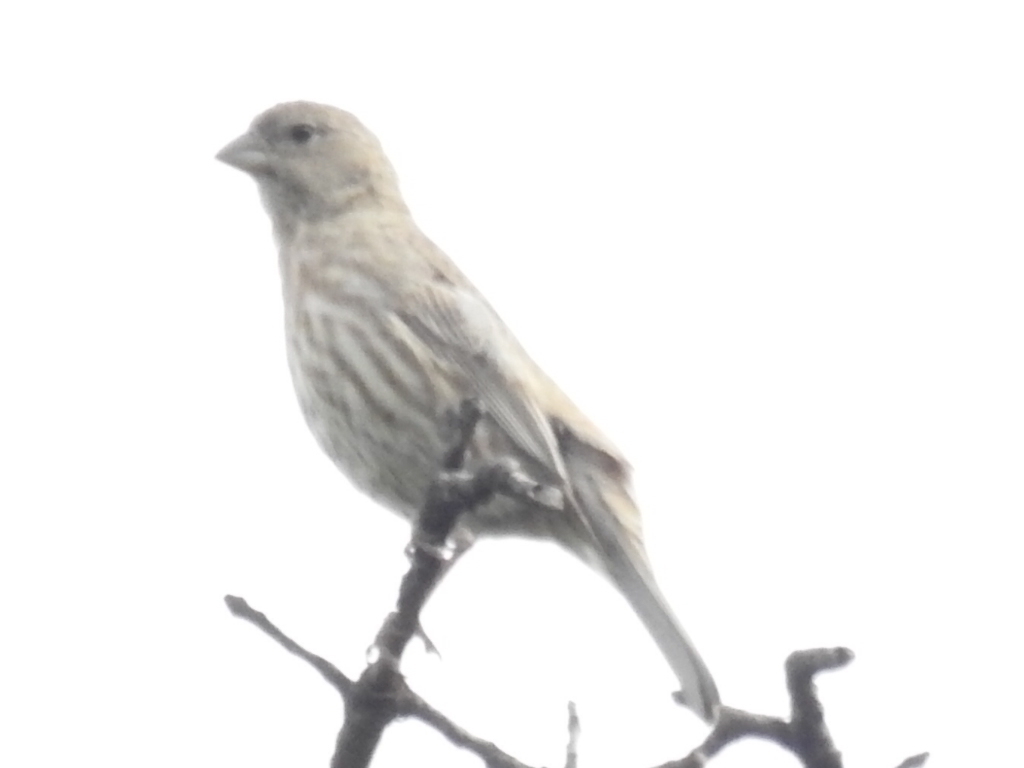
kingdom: Animalia
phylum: Chordata
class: Aves
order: Passeriformes
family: Fringillidae
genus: Haemorhous
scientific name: Haemorhous mexicanus
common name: House finch
